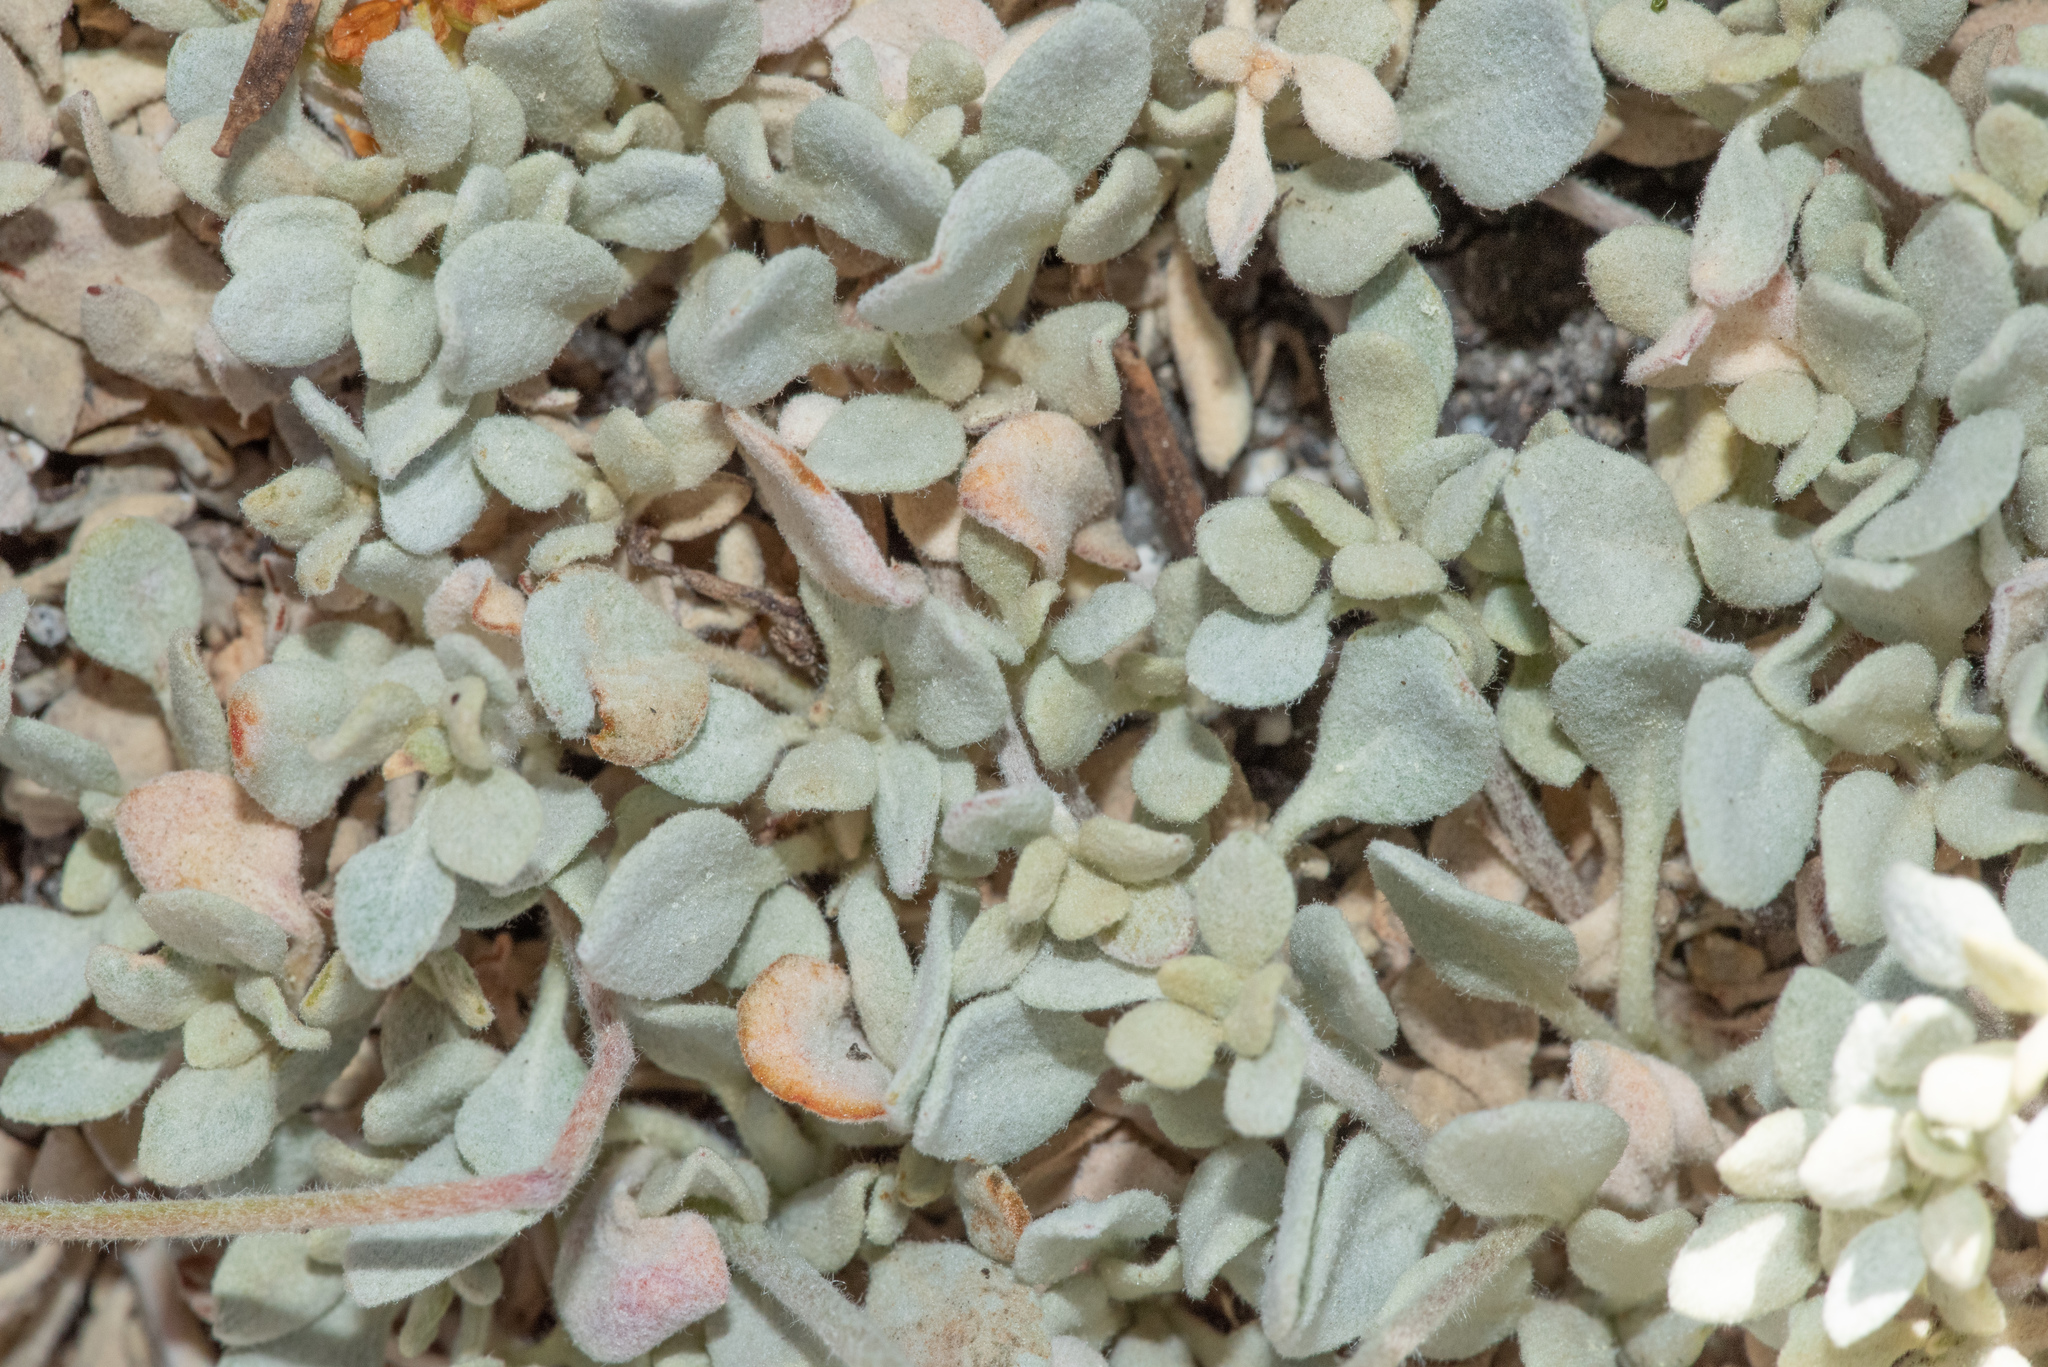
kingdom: Plantae
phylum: Tracheophyta
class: Magnoliopsida
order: Caryophyllales
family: Polygonaceae
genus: Eriogonum
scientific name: Eriogonum marifolium
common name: Marum-leaf wild buckwheat
